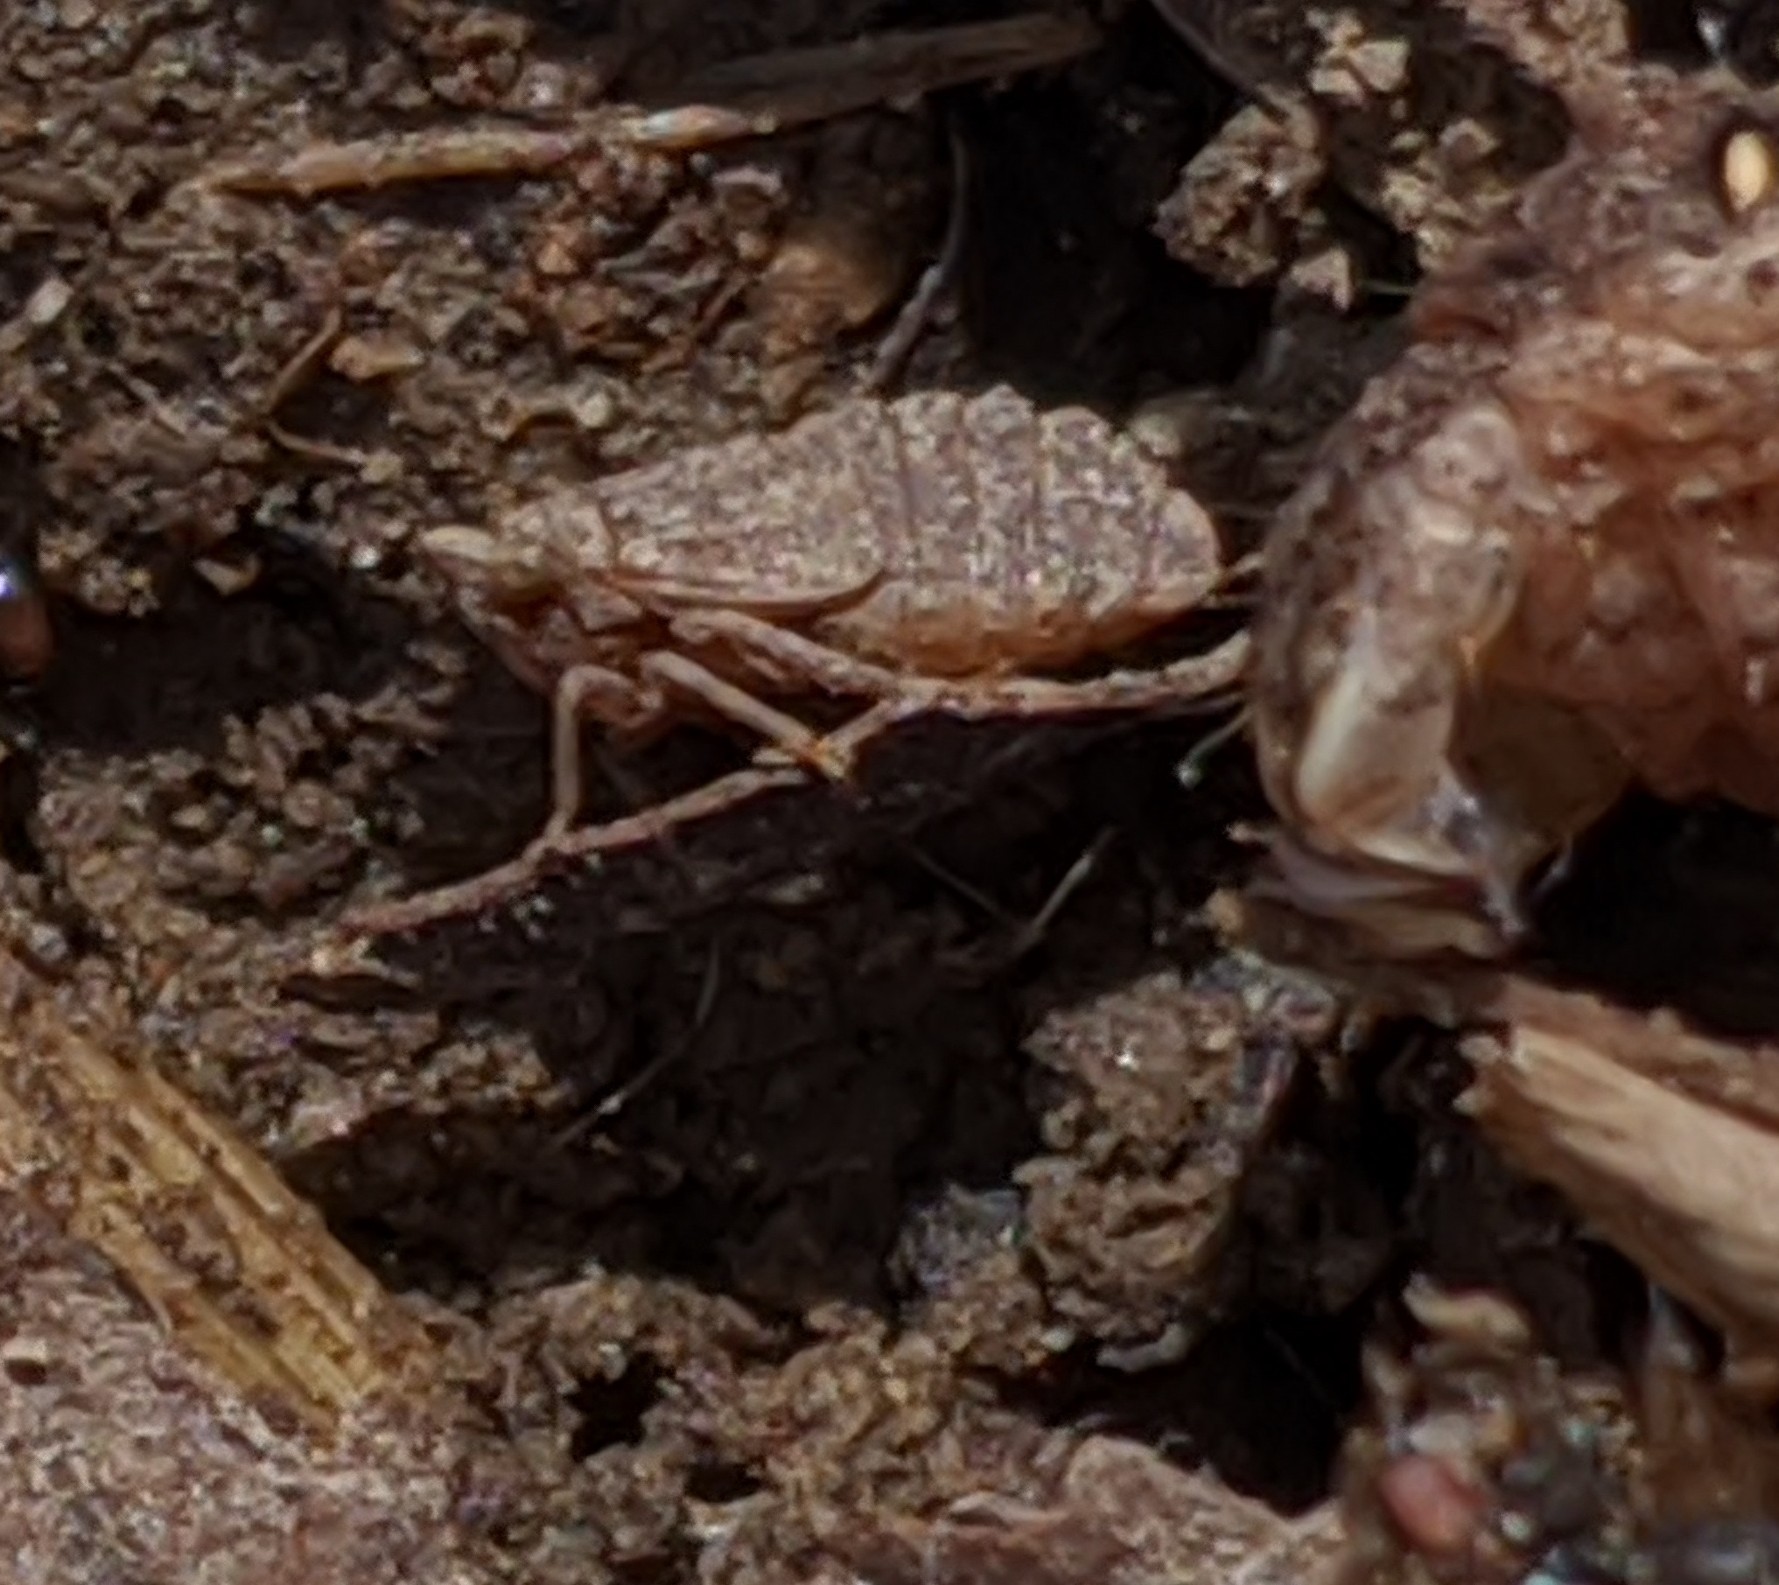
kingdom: Animalia
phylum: Arthropoda
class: Insecta
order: Hemiptera
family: Cicadellidae
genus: Agallia
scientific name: Agallia
